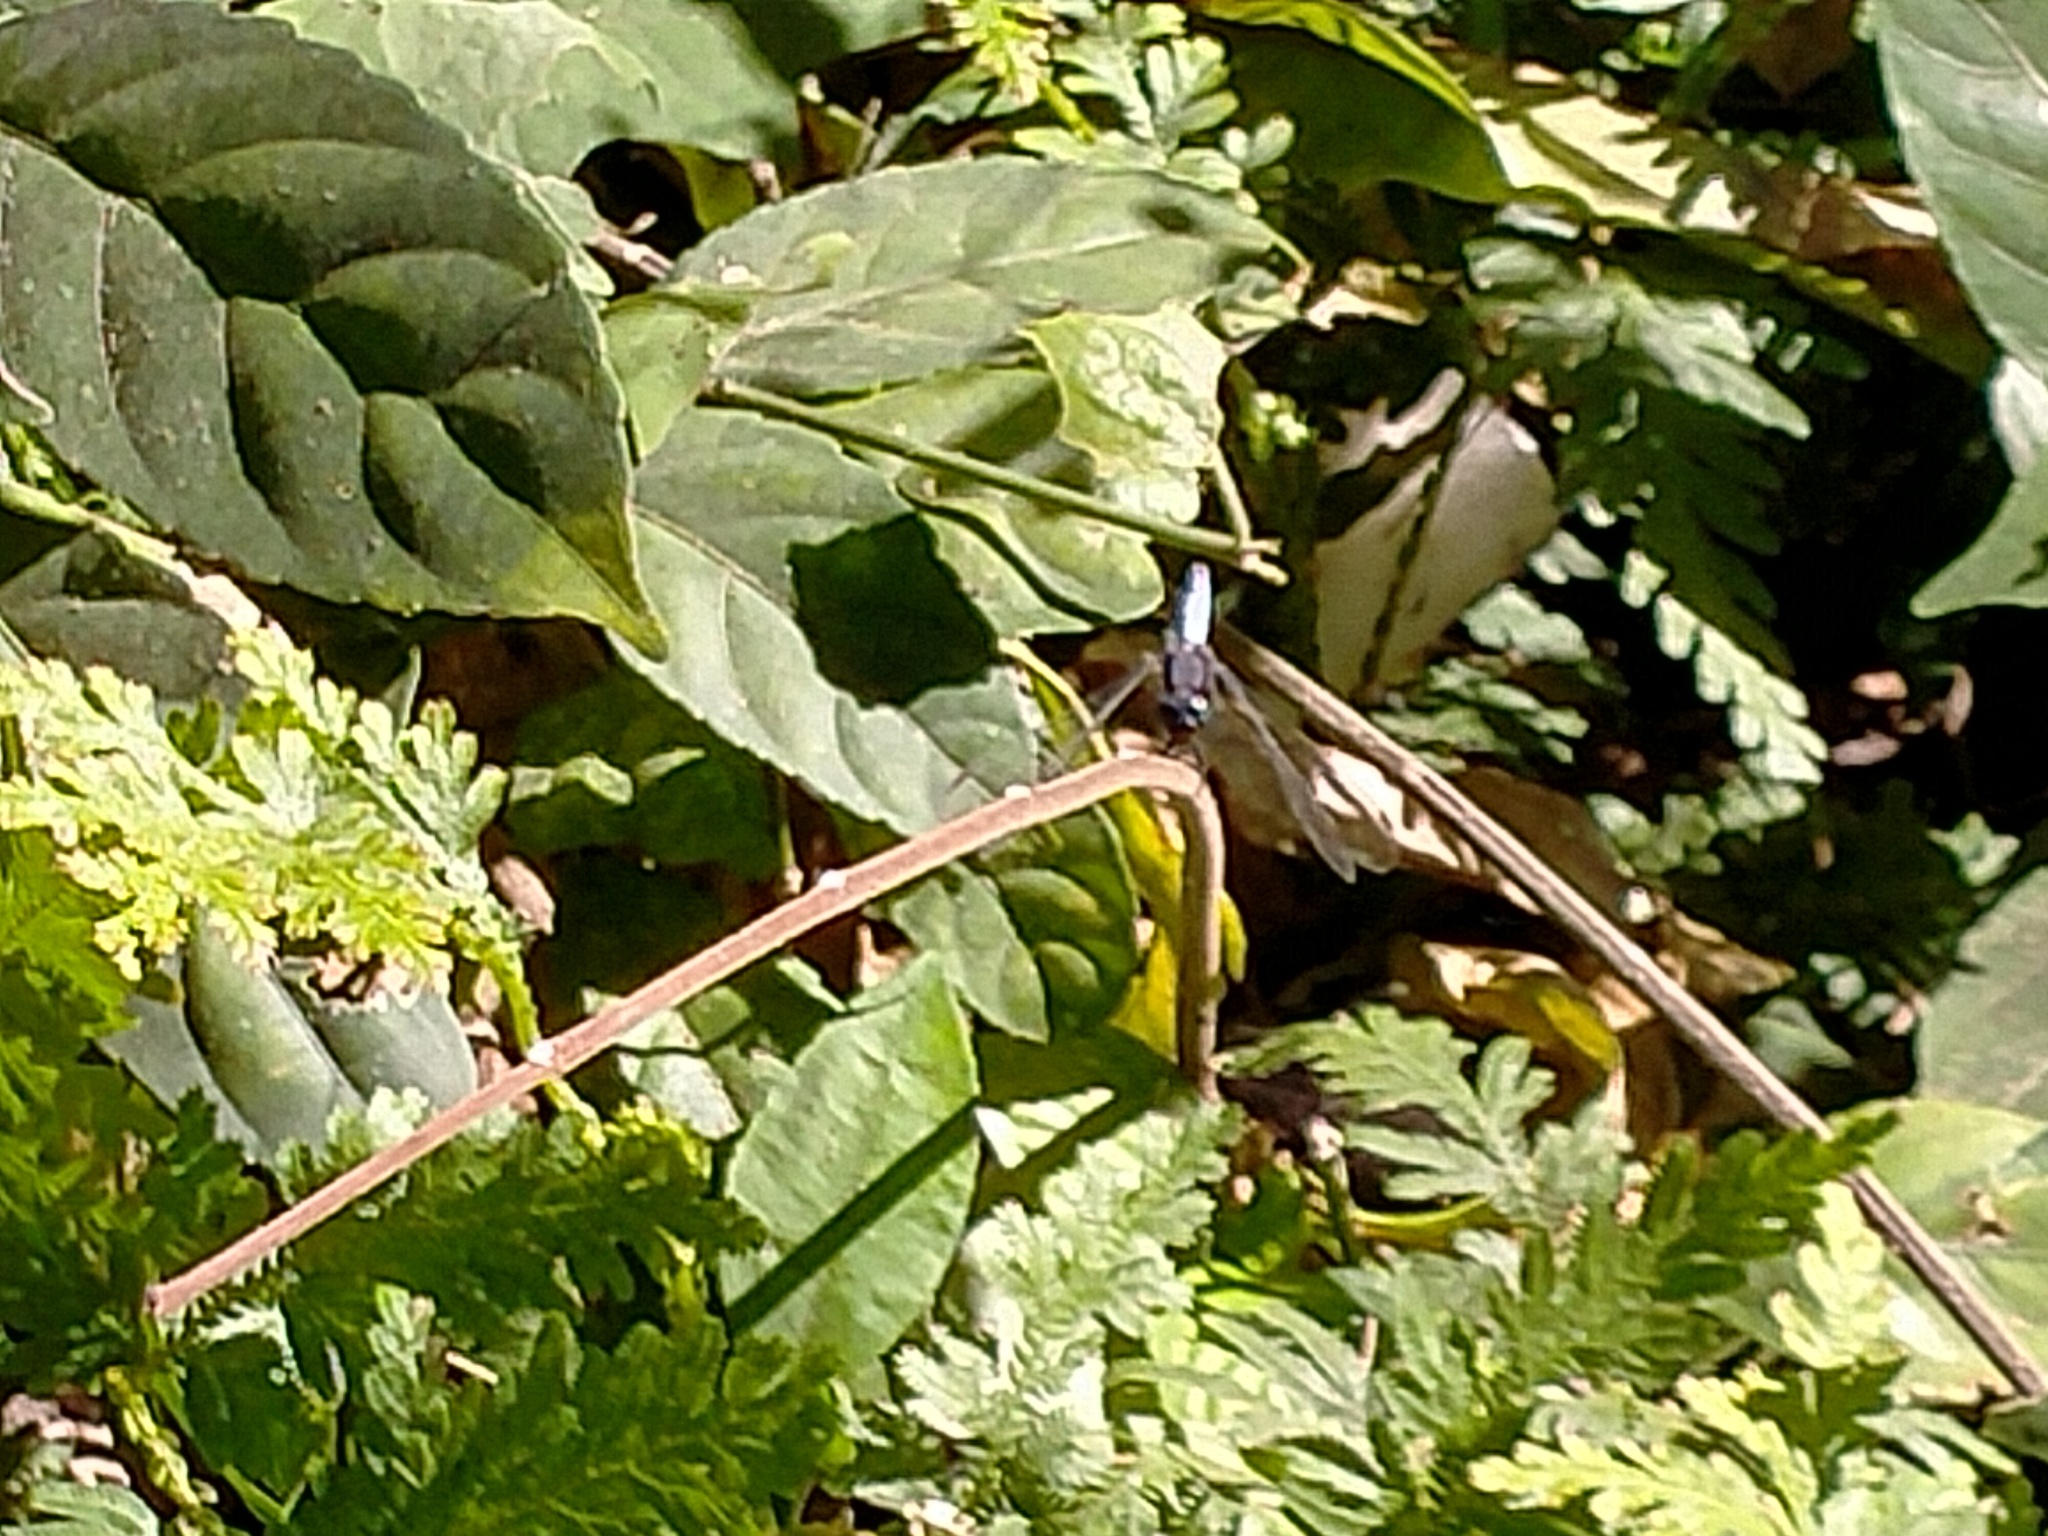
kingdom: Animalia
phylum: Arthropoda
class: Insecta
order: Odonata
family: Libellulidae
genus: Orthetrum
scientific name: Orthetrum glaucum
